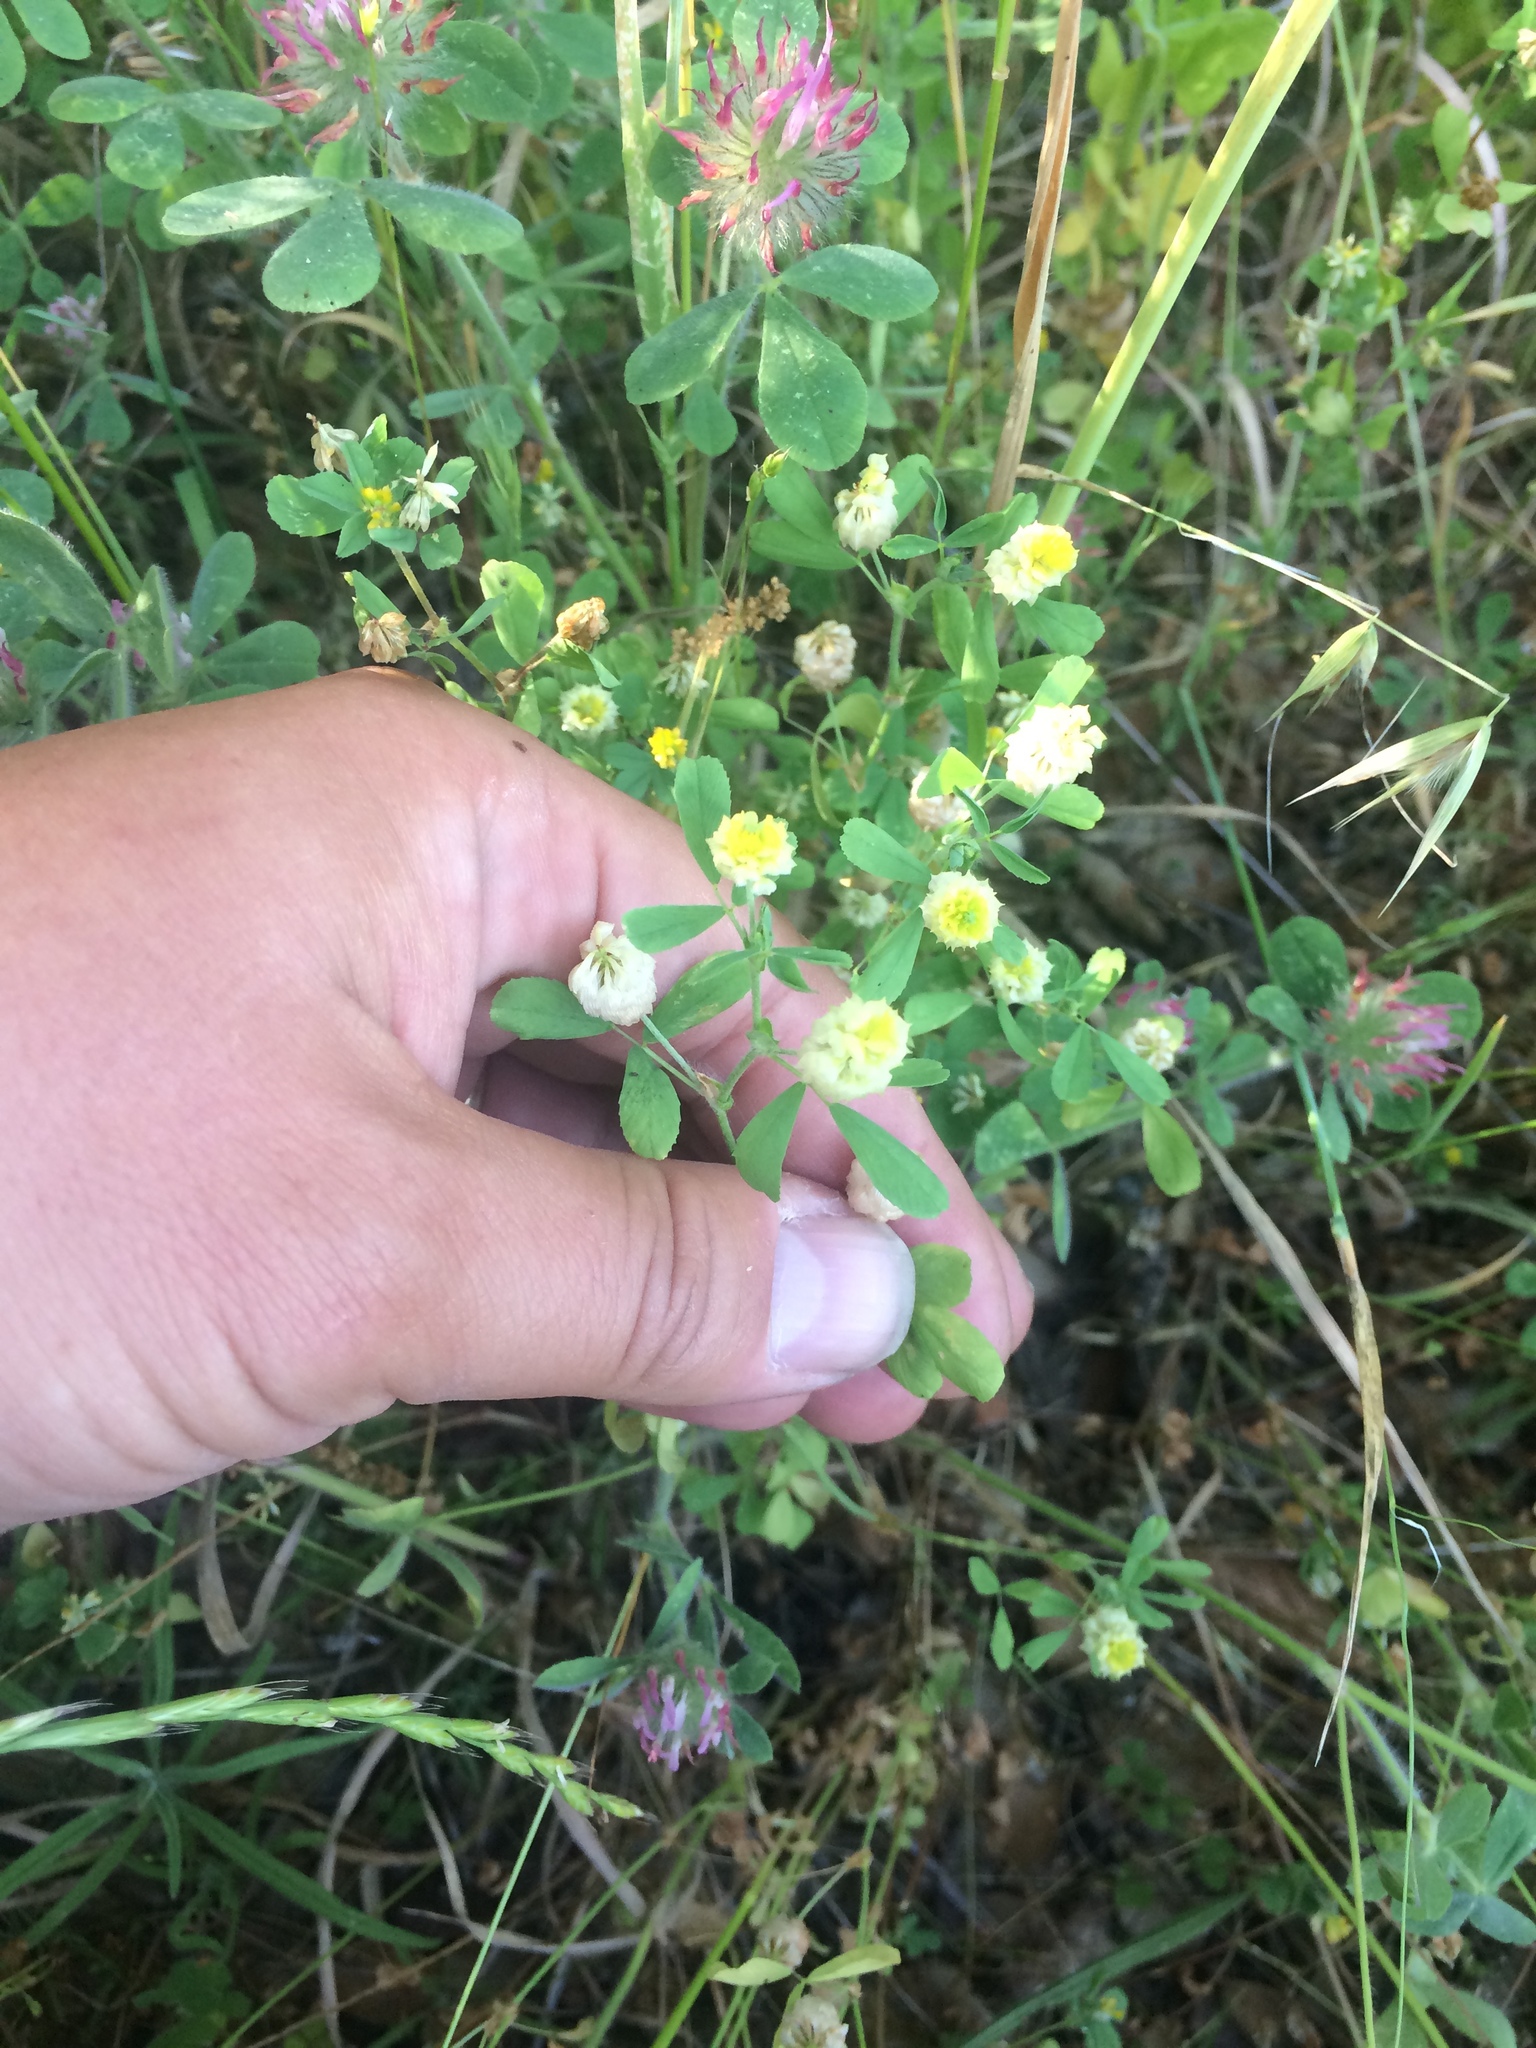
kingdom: Plantae
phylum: Tracheophyta
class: Magnoliopsida
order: Fabales
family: Fabaceae
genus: Trifolium
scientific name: Trifolium campestre
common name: Field clover
